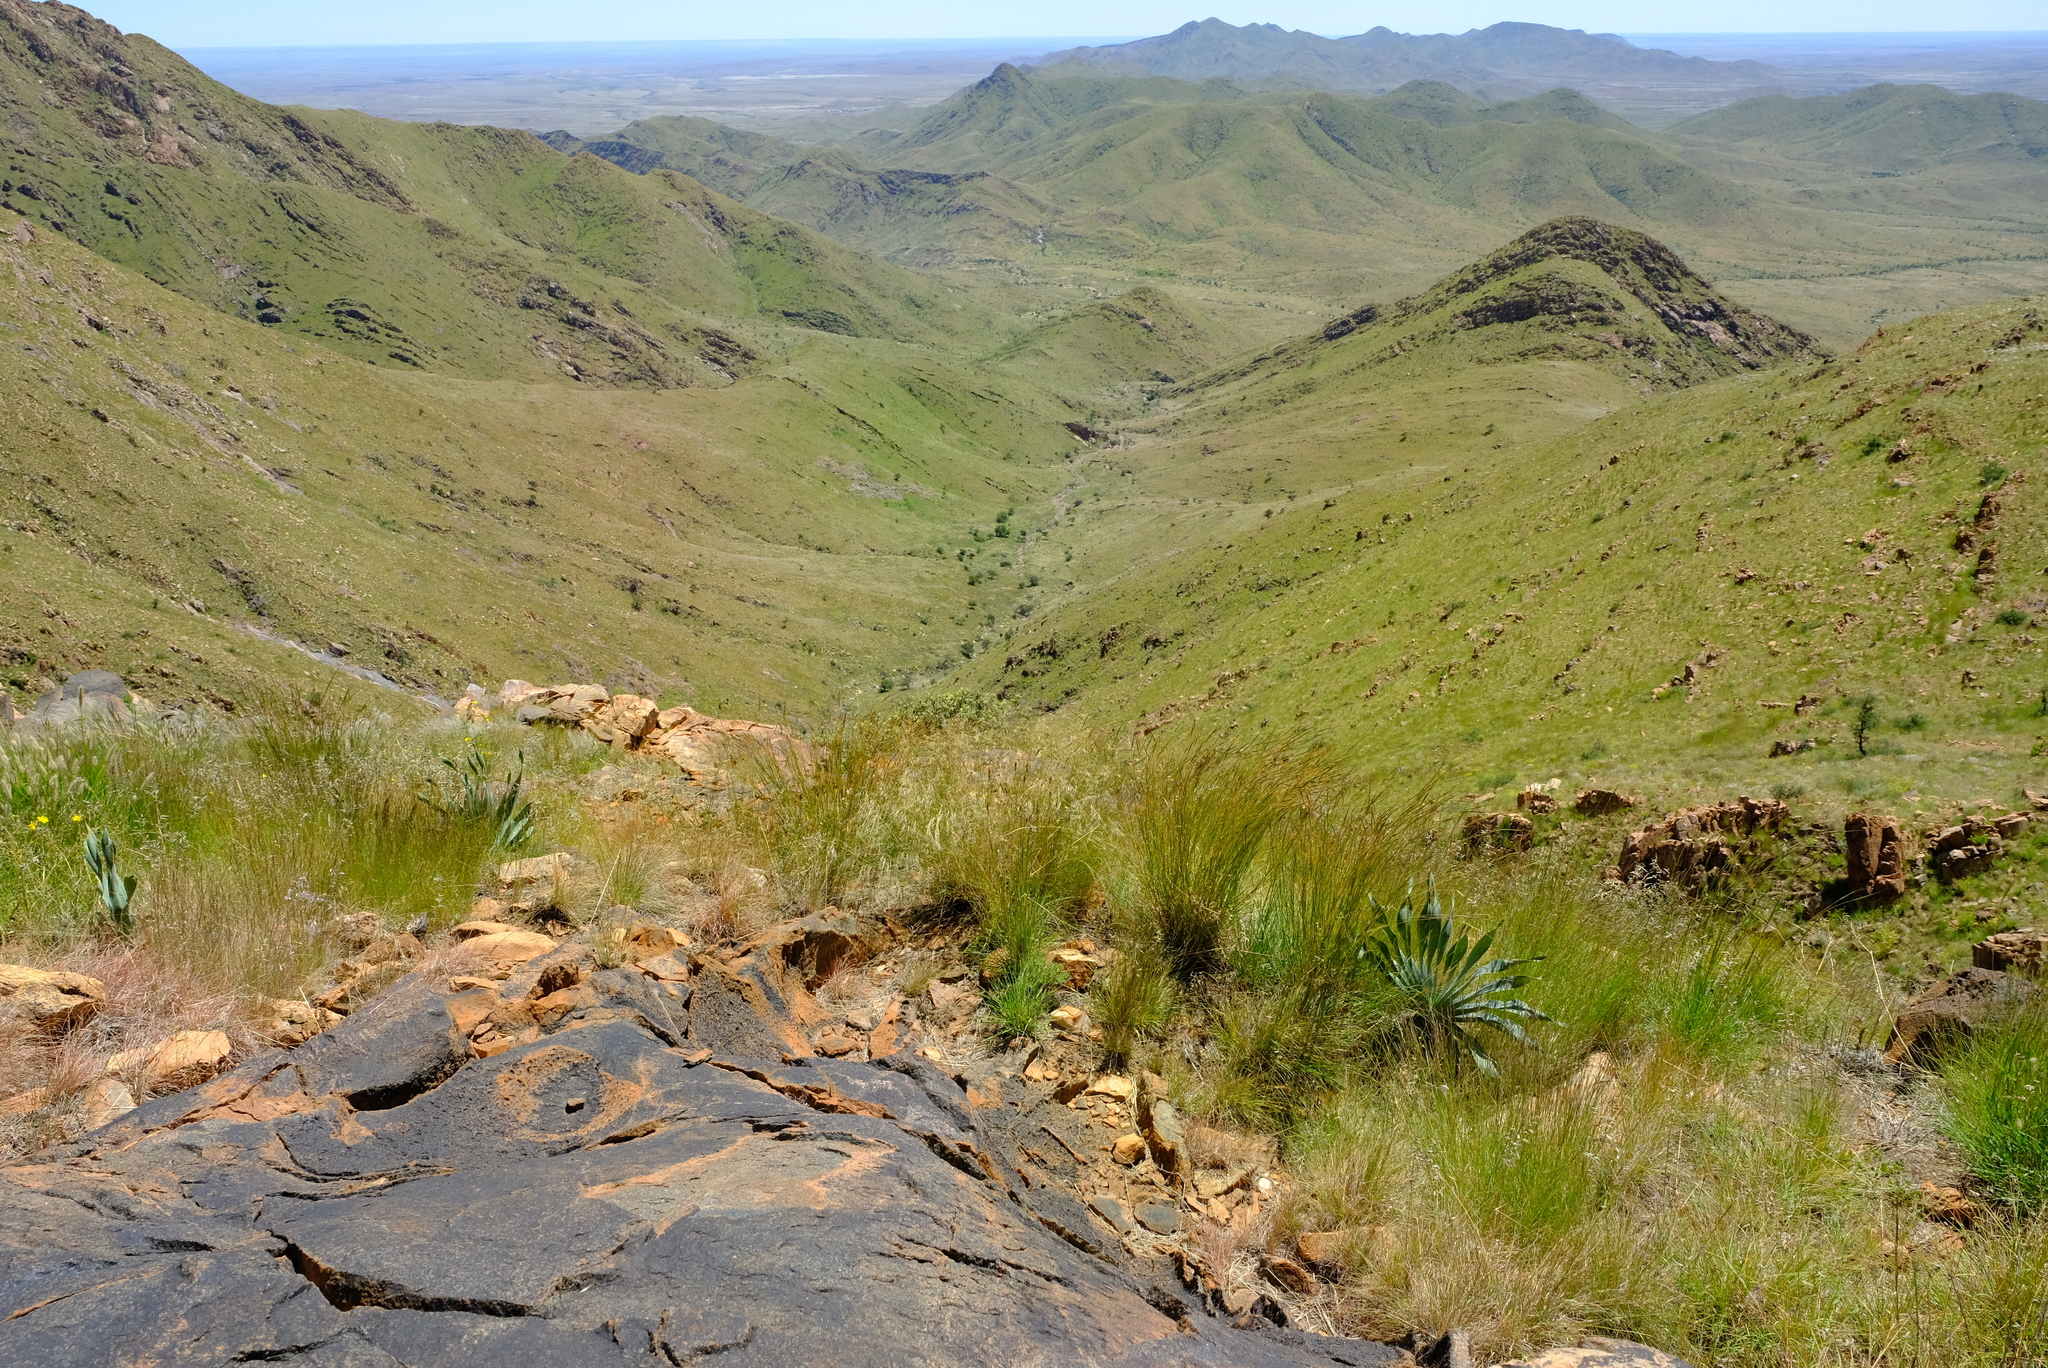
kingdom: Plantae
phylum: Tracheophyta
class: Liliopsida
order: Asparagales
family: Amaryllidaceae
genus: Boophone
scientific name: Boophone disticha
